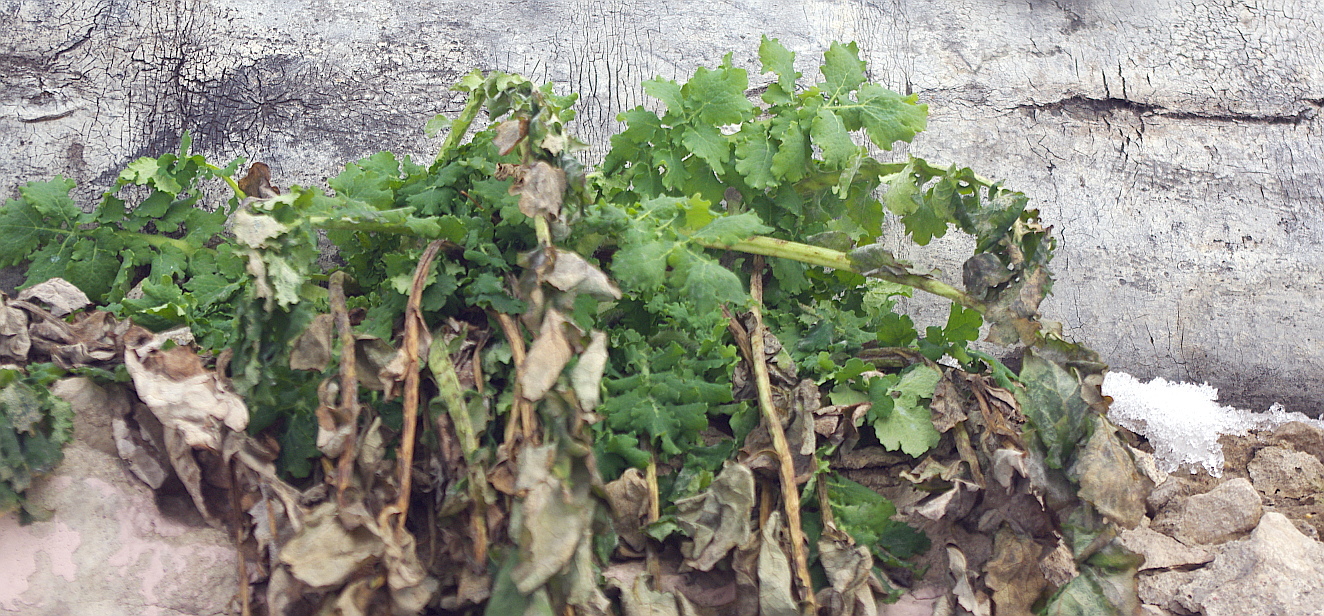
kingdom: Plantae
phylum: Tracheophyta
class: Magnoliopsida
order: Ranunculales
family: Papaveraceae
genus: Chelidonium
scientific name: Chelidonium majus
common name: Greater celandine
